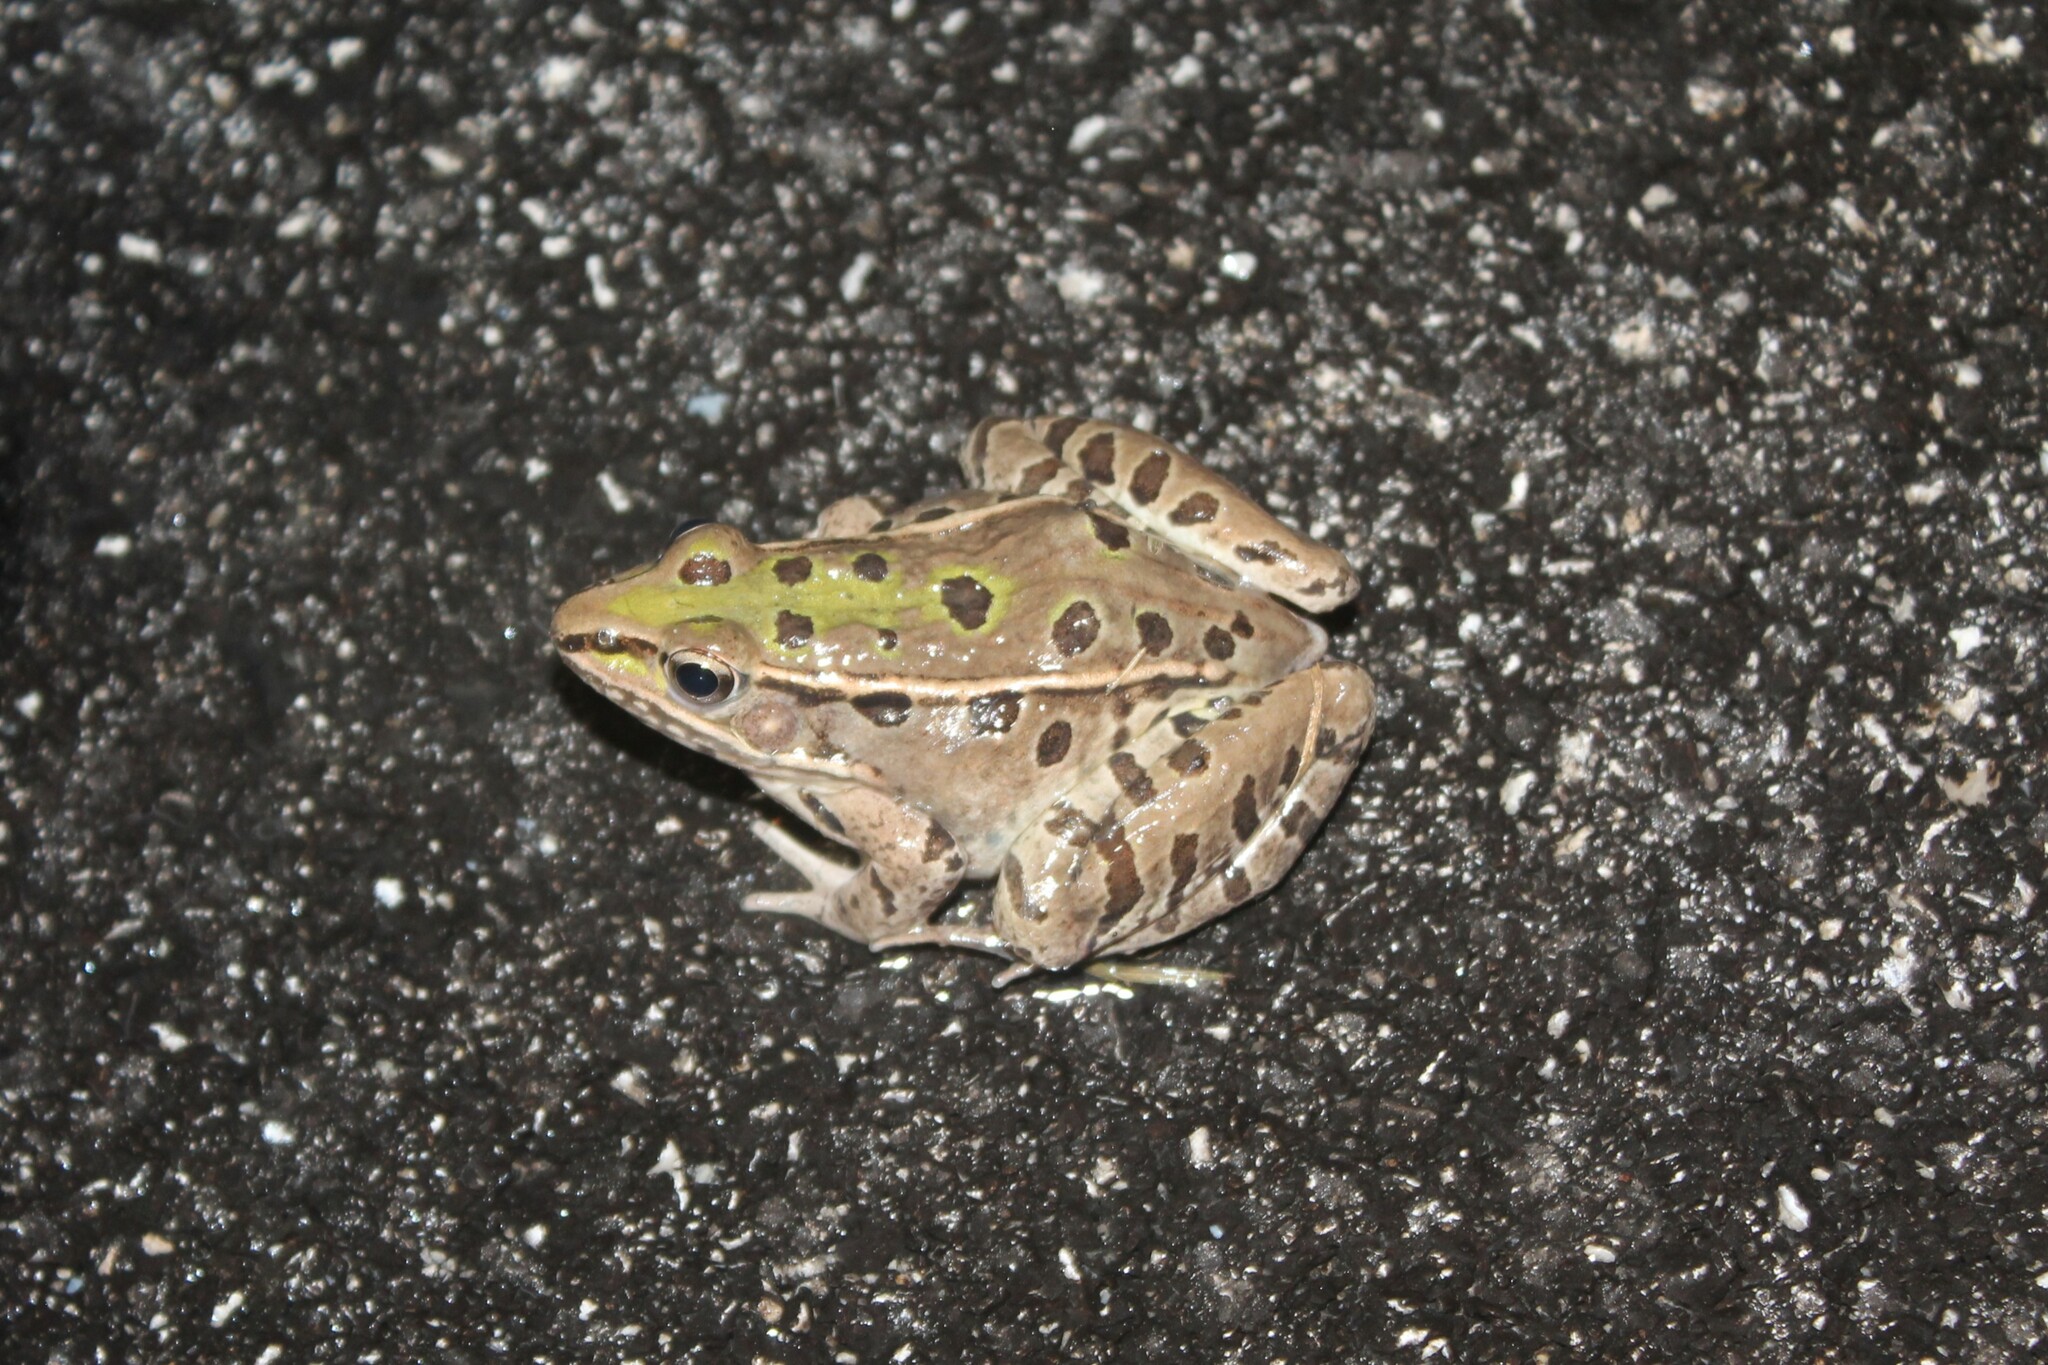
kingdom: Animalia
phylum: Chordata
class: Amphibia
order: Anura
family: Ranidae
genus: Lithobates
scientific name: Lithobates sphenocephalus
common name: Southern leopard frog
